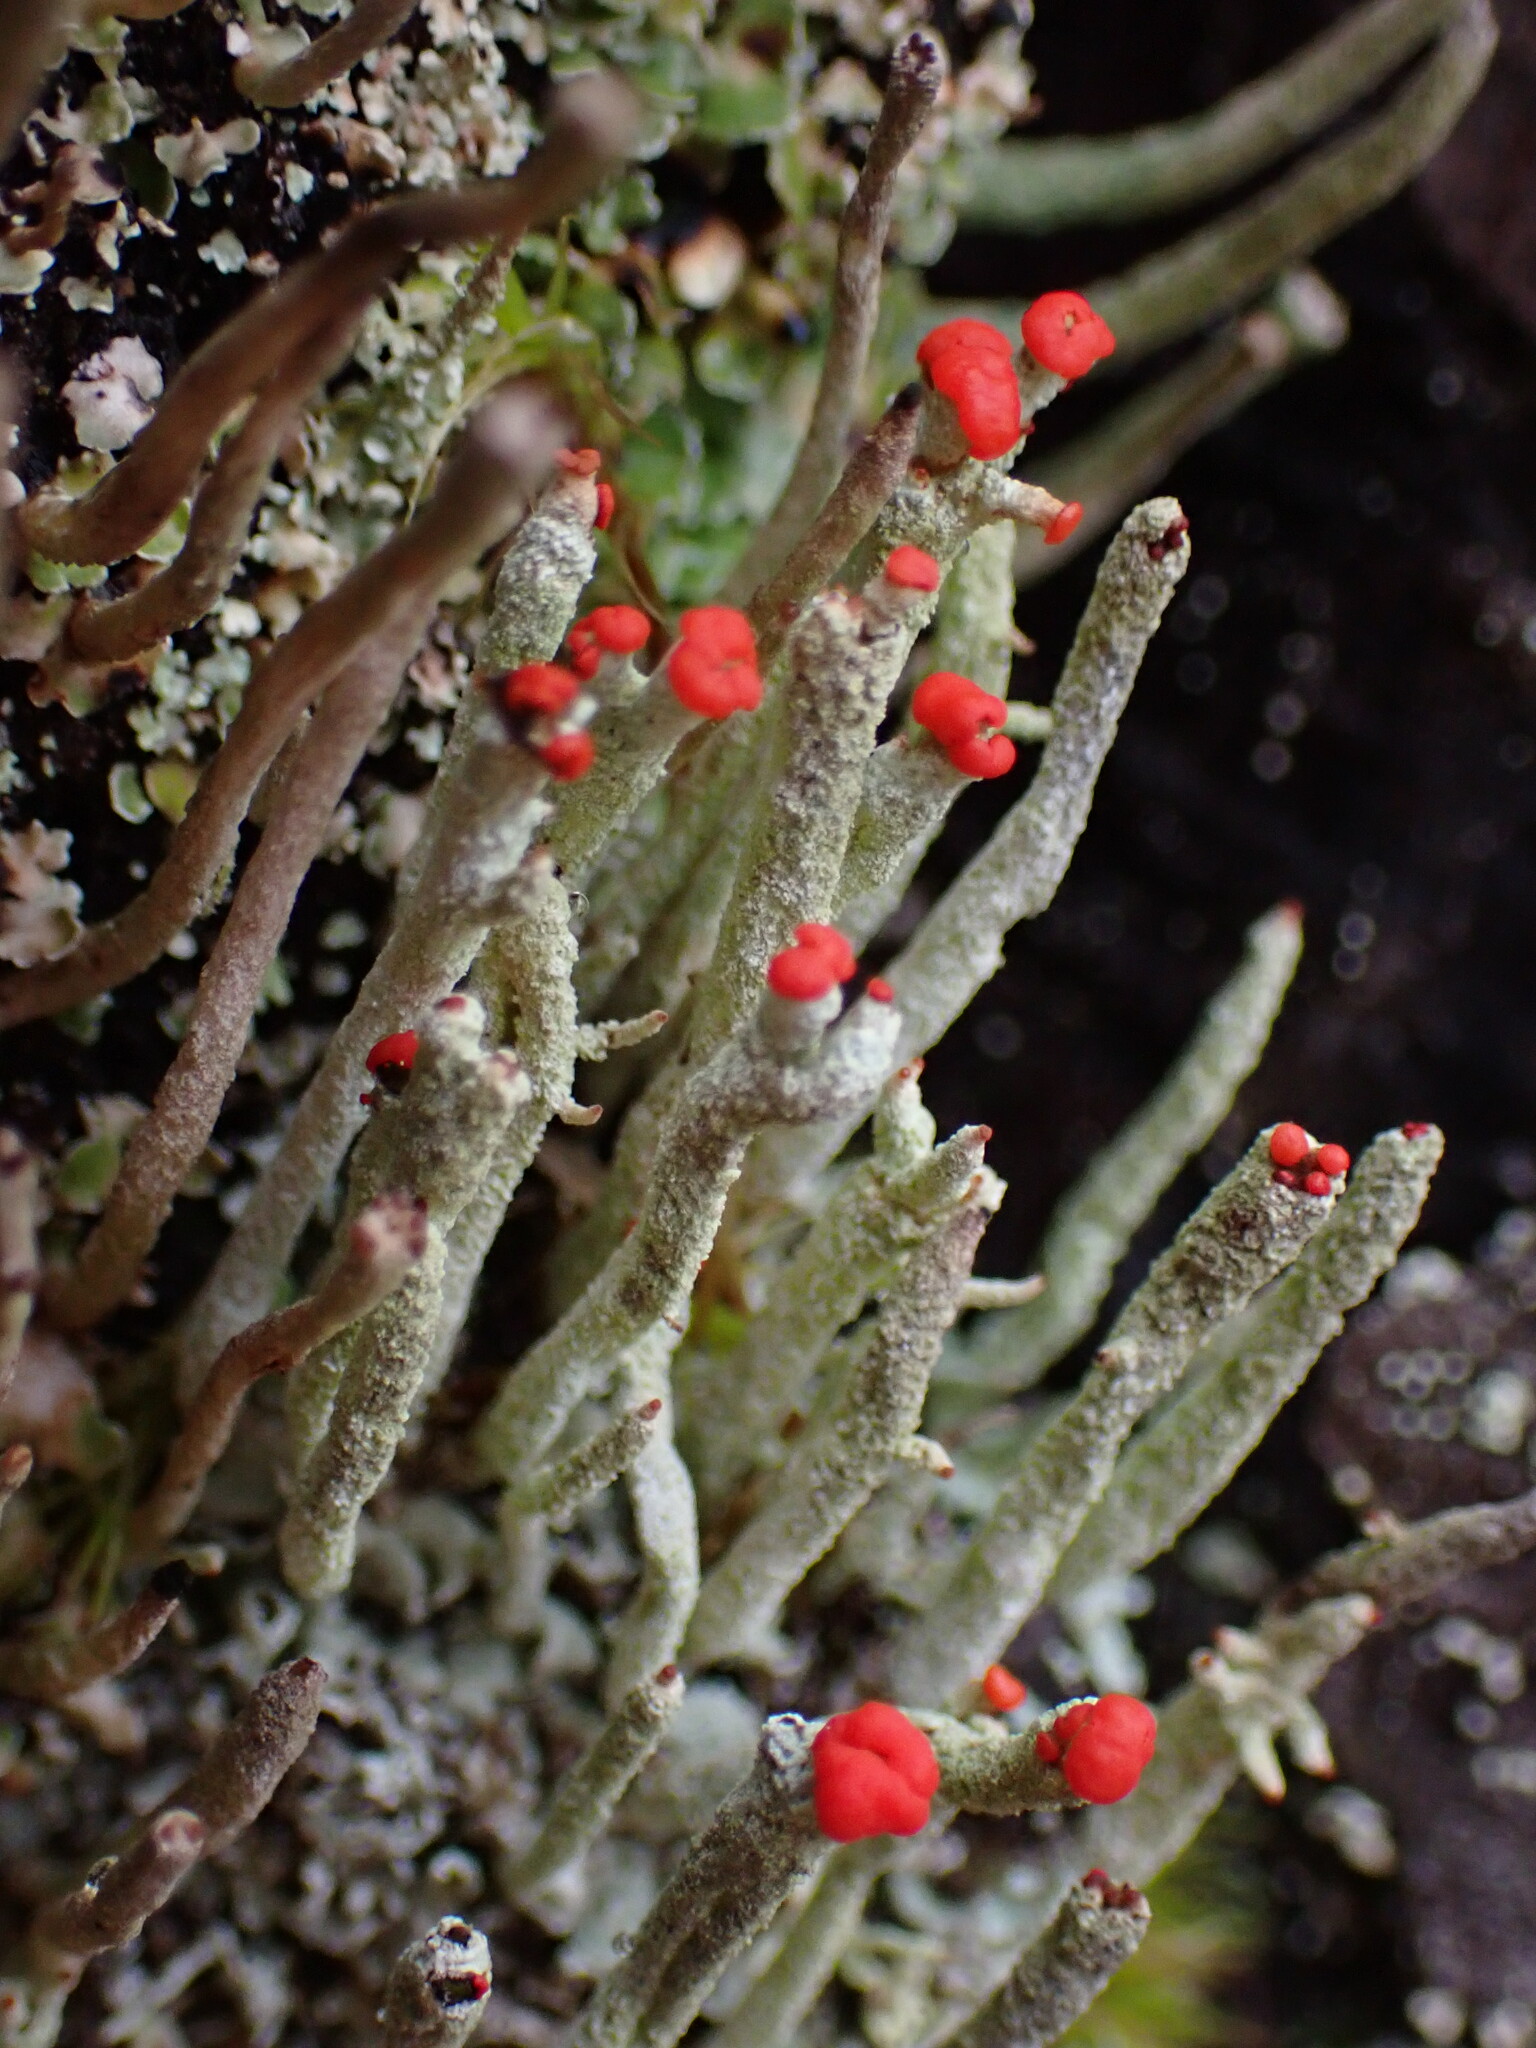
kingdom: Fungi
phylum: Ascomycota
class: Lecanoromycetes
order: Lecanorales
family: Cladoniaceae
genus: Cladonia
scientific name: Cladonia transcendens
